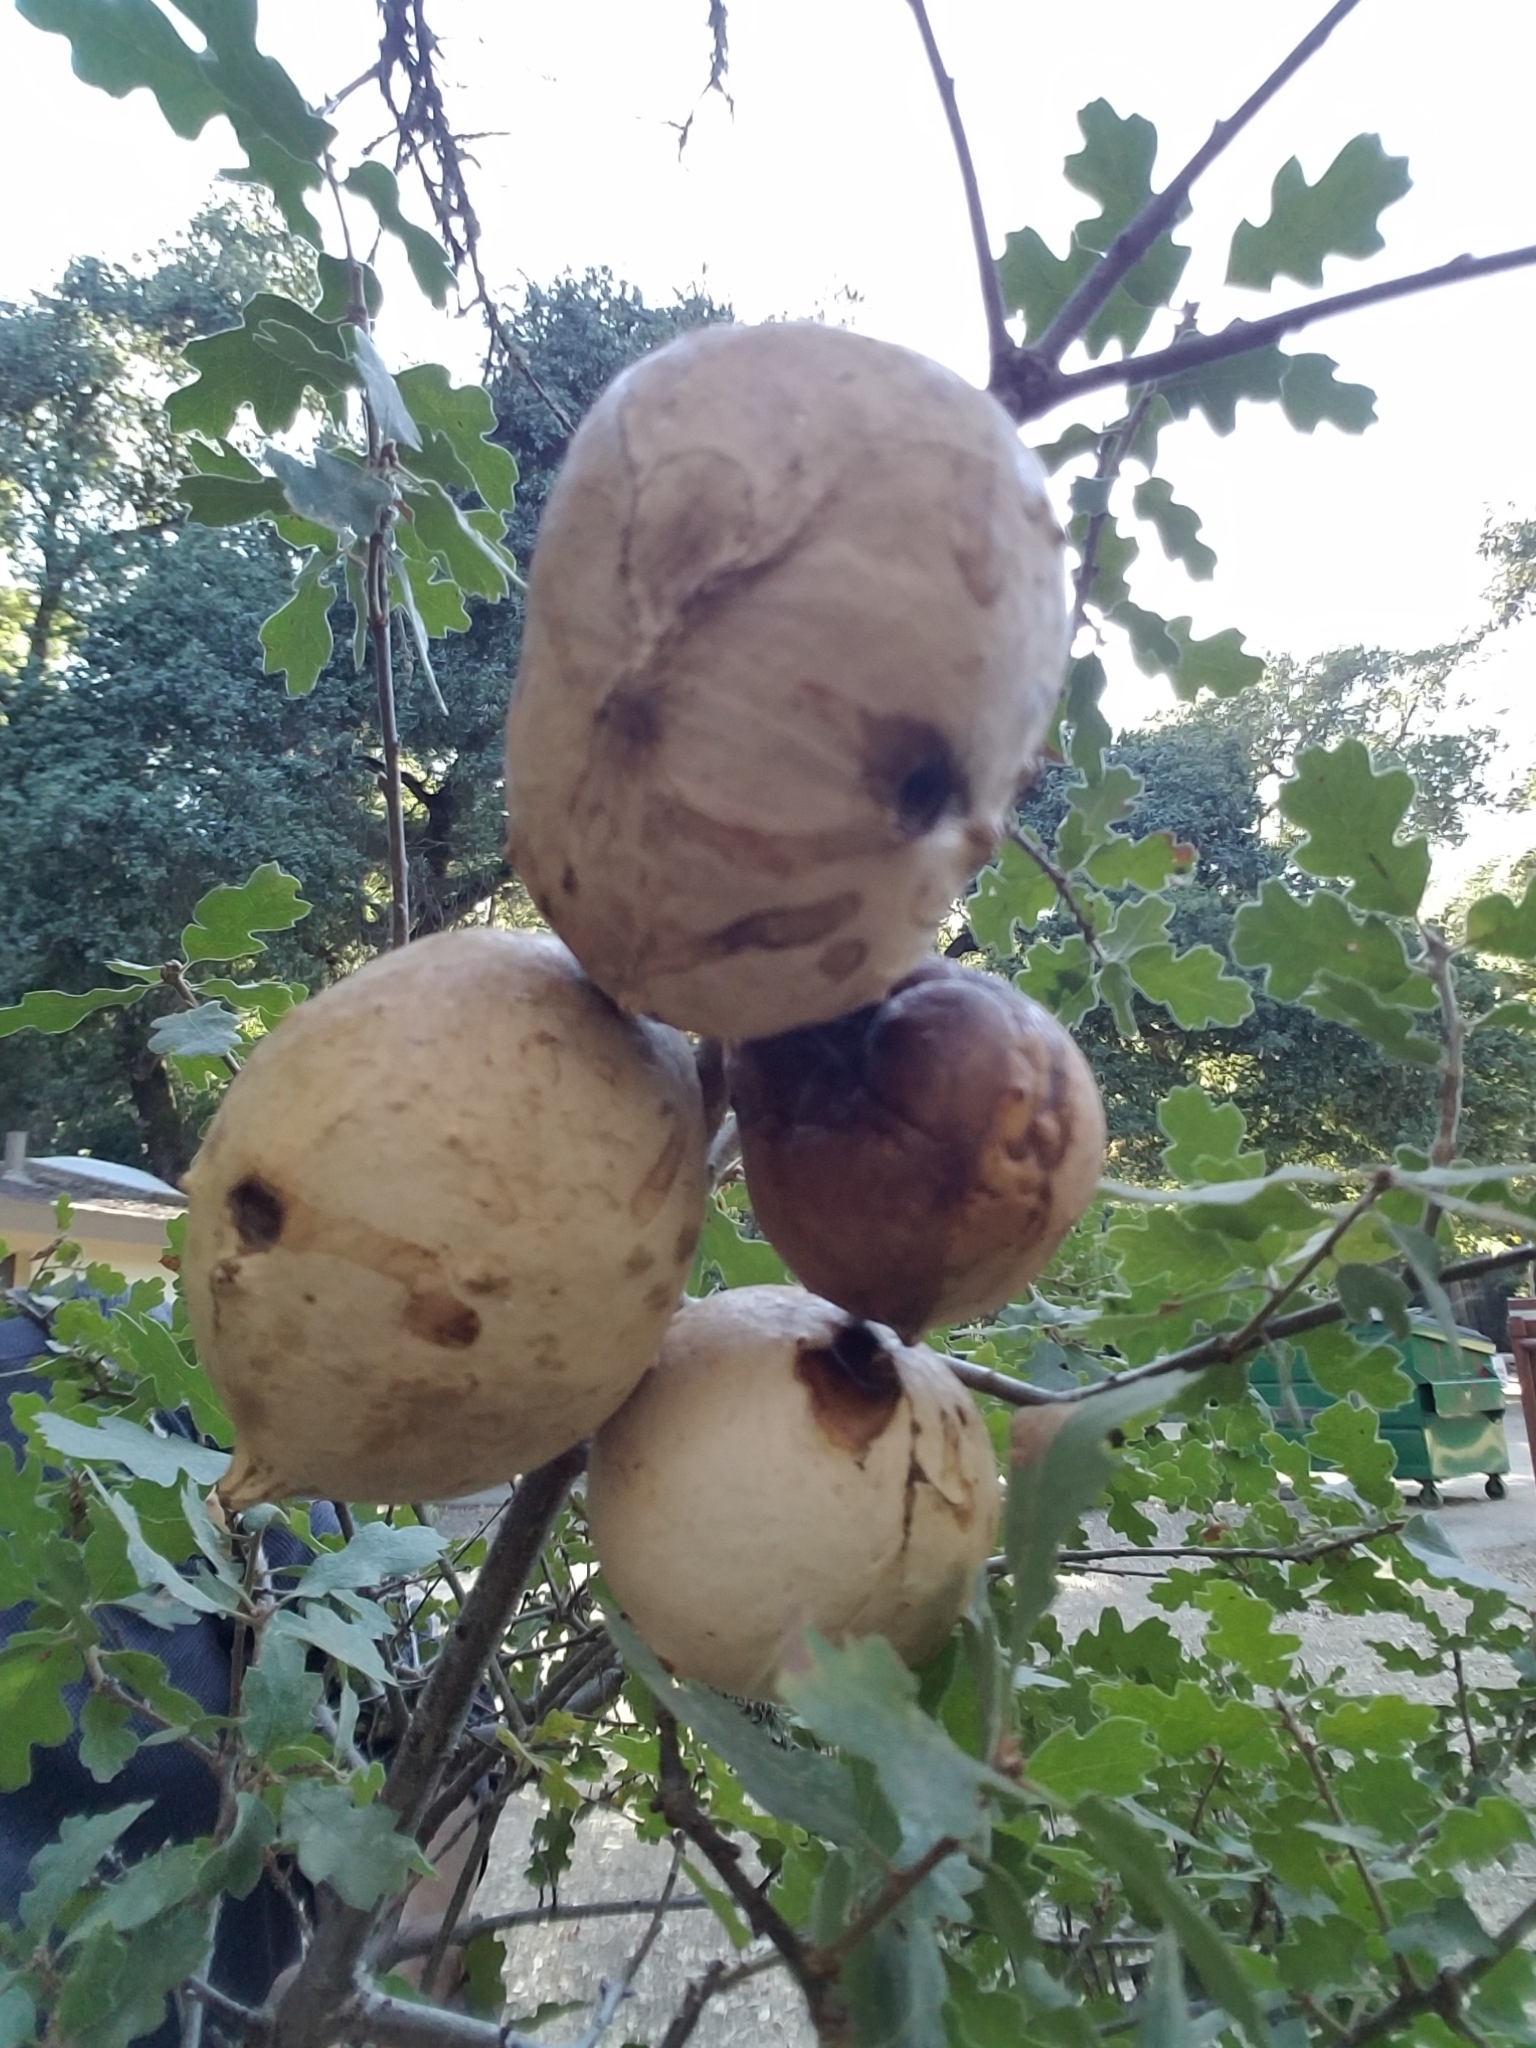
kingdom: Animalia
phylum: Arthropoda
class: Insecta
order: Hymenoptera
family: Cynipidae
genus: Andricus
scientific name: Andricus quercuscalifornicus
